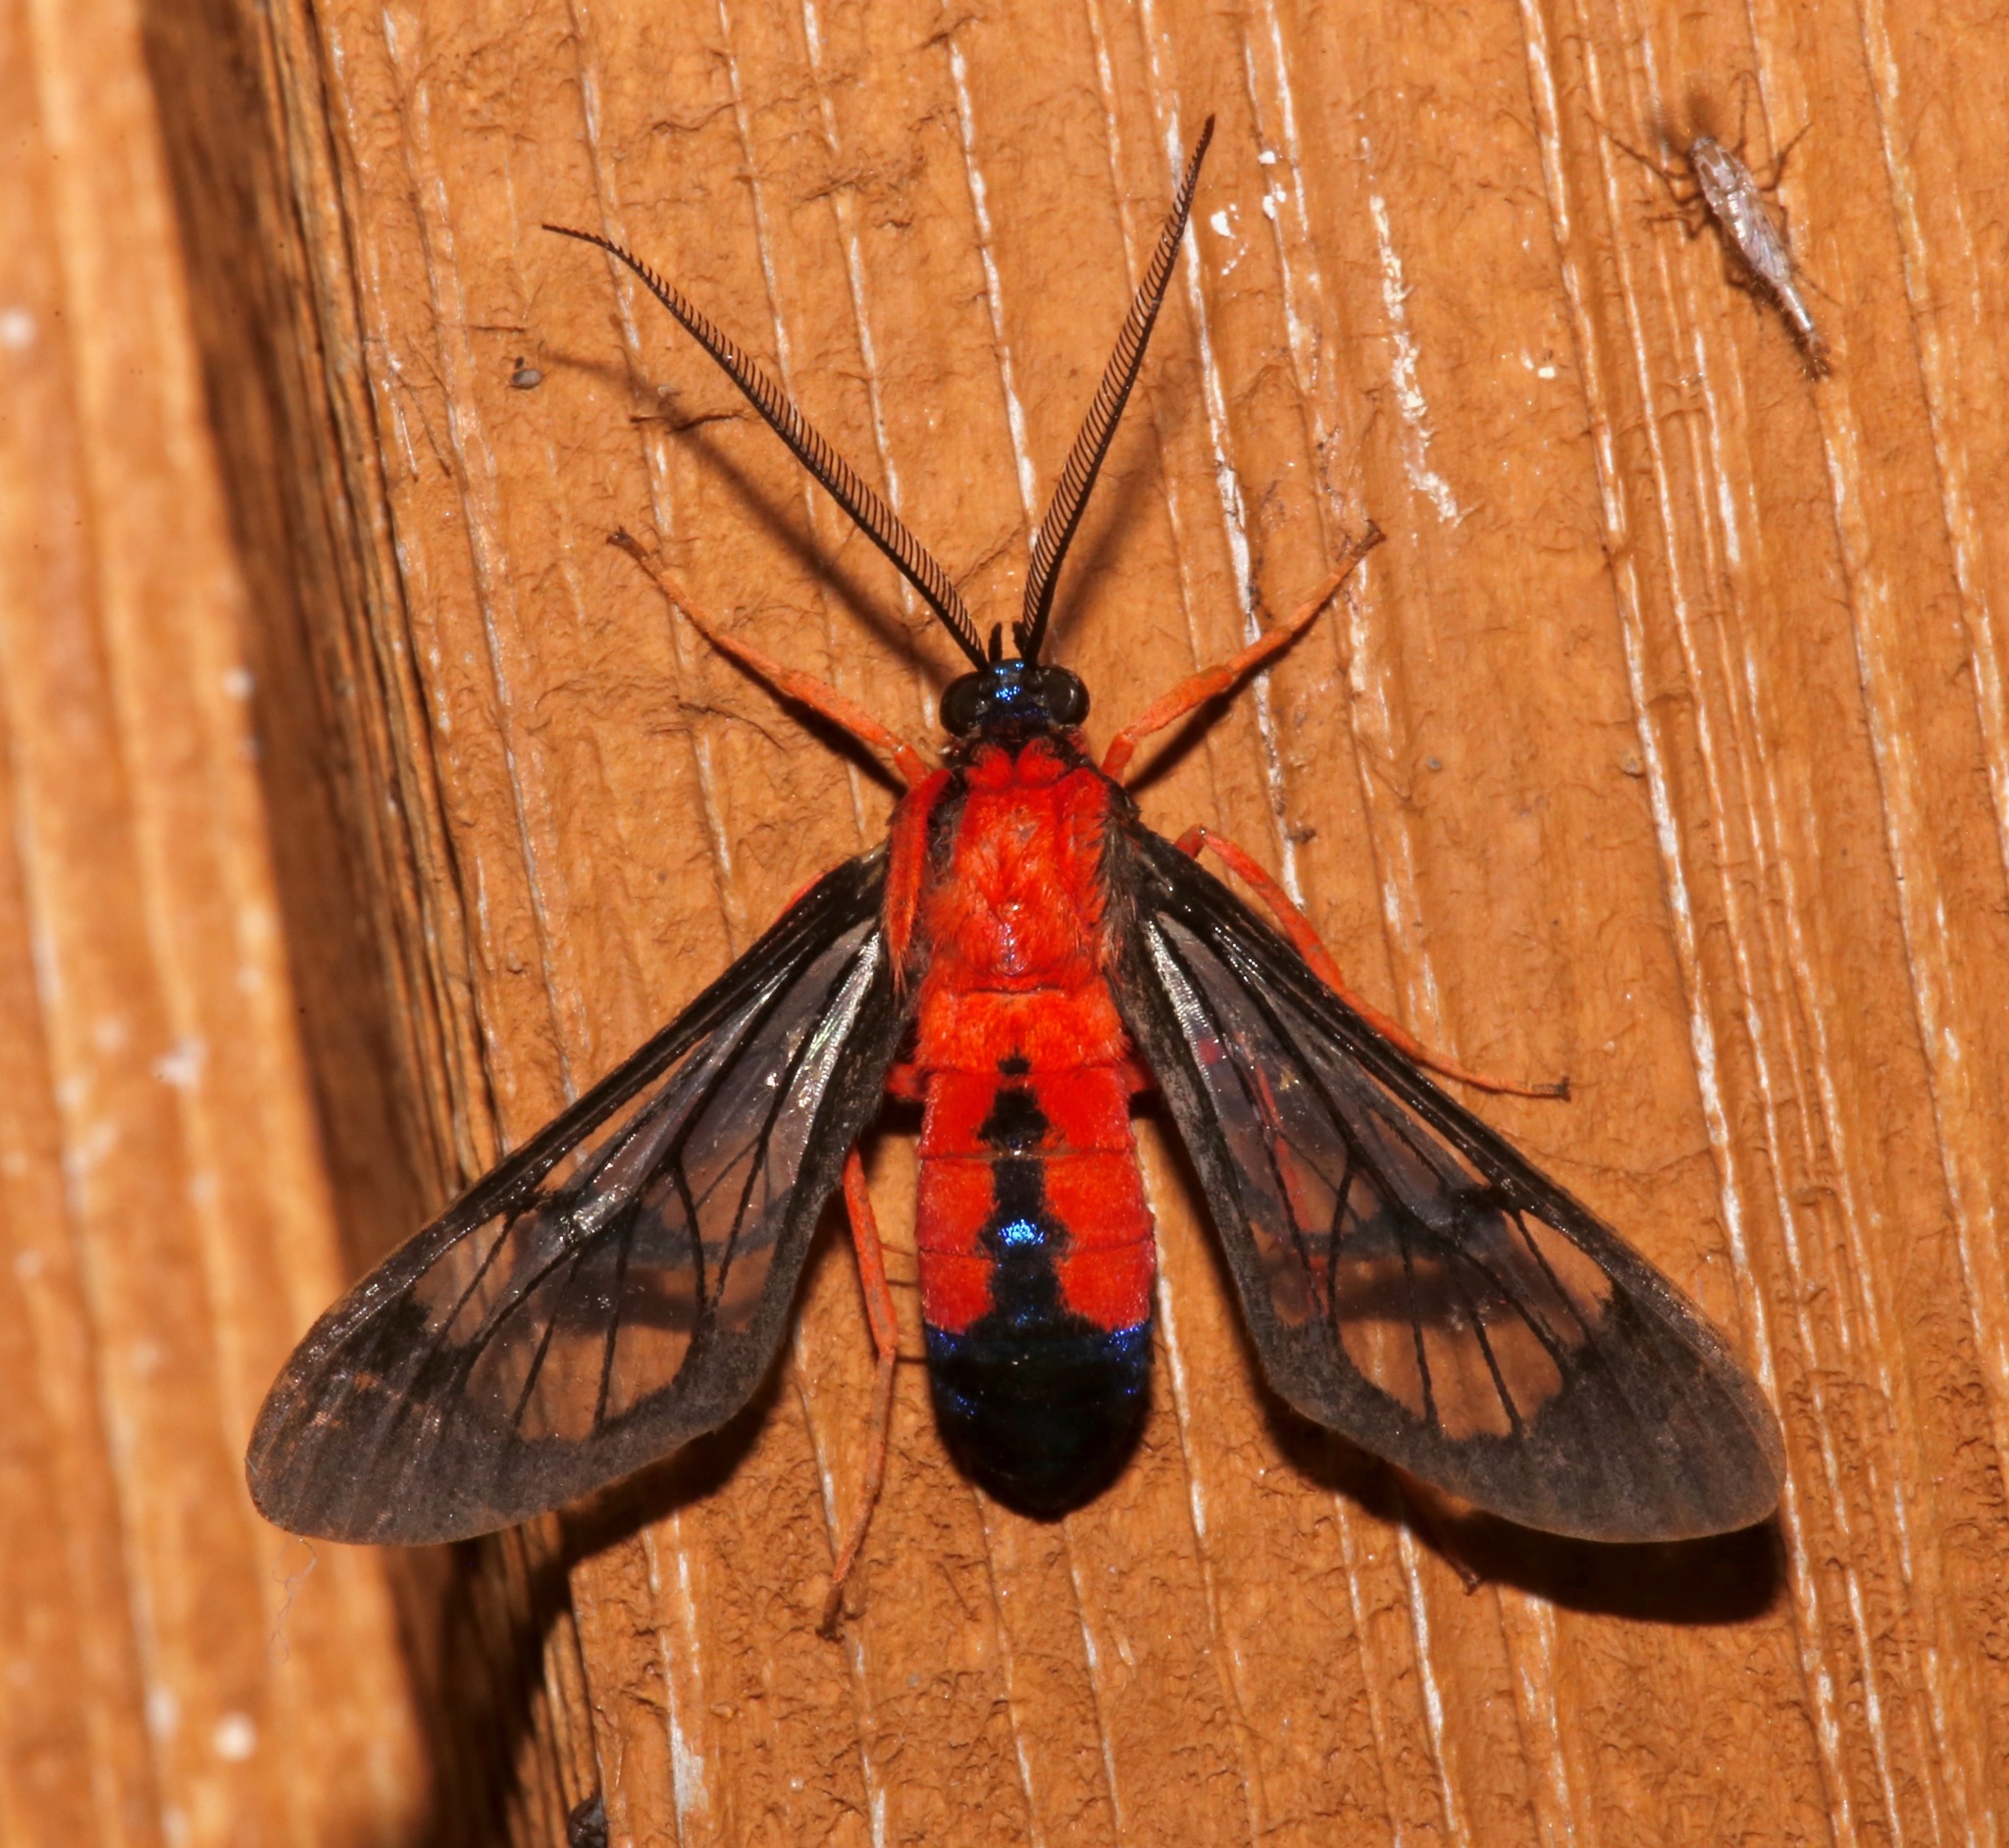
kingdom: Animalia
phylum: Arthropoda
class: Insecta
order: Lepidoptera
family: Erebidae
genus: Cosmosoma
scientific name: Cosmosoma myrodora
